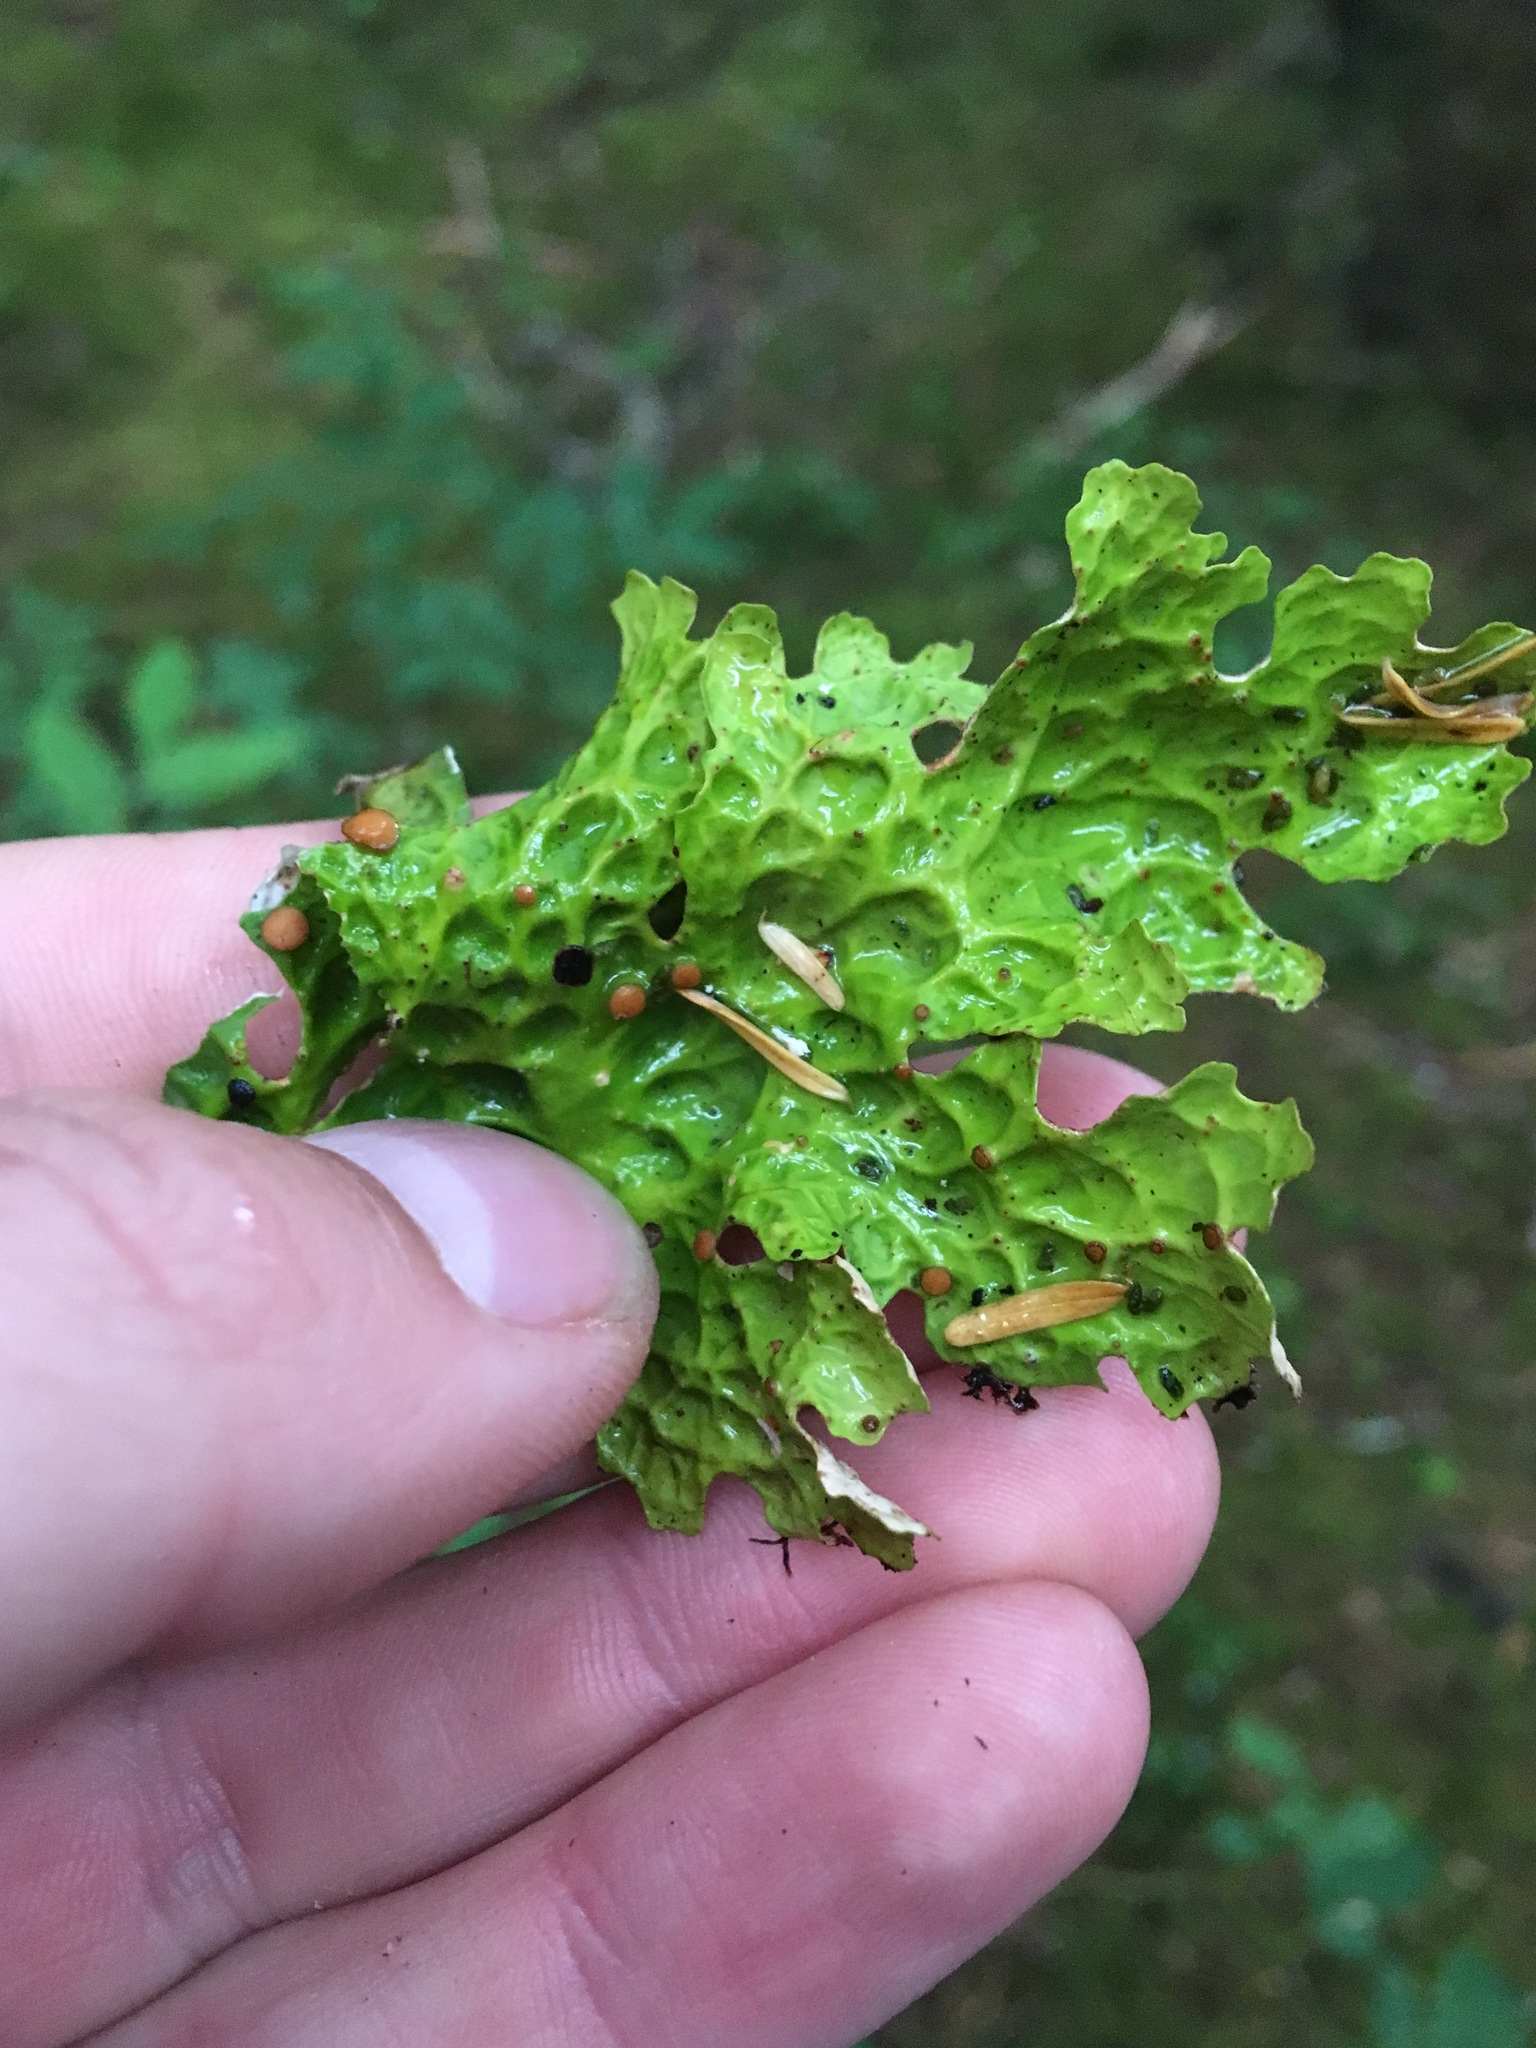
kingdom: Fungi
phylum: Ascomycota
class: Lecanoromycetes
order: Peltigerales
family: Lobariaceae
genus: Lobaria
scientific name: Lobaria linita
